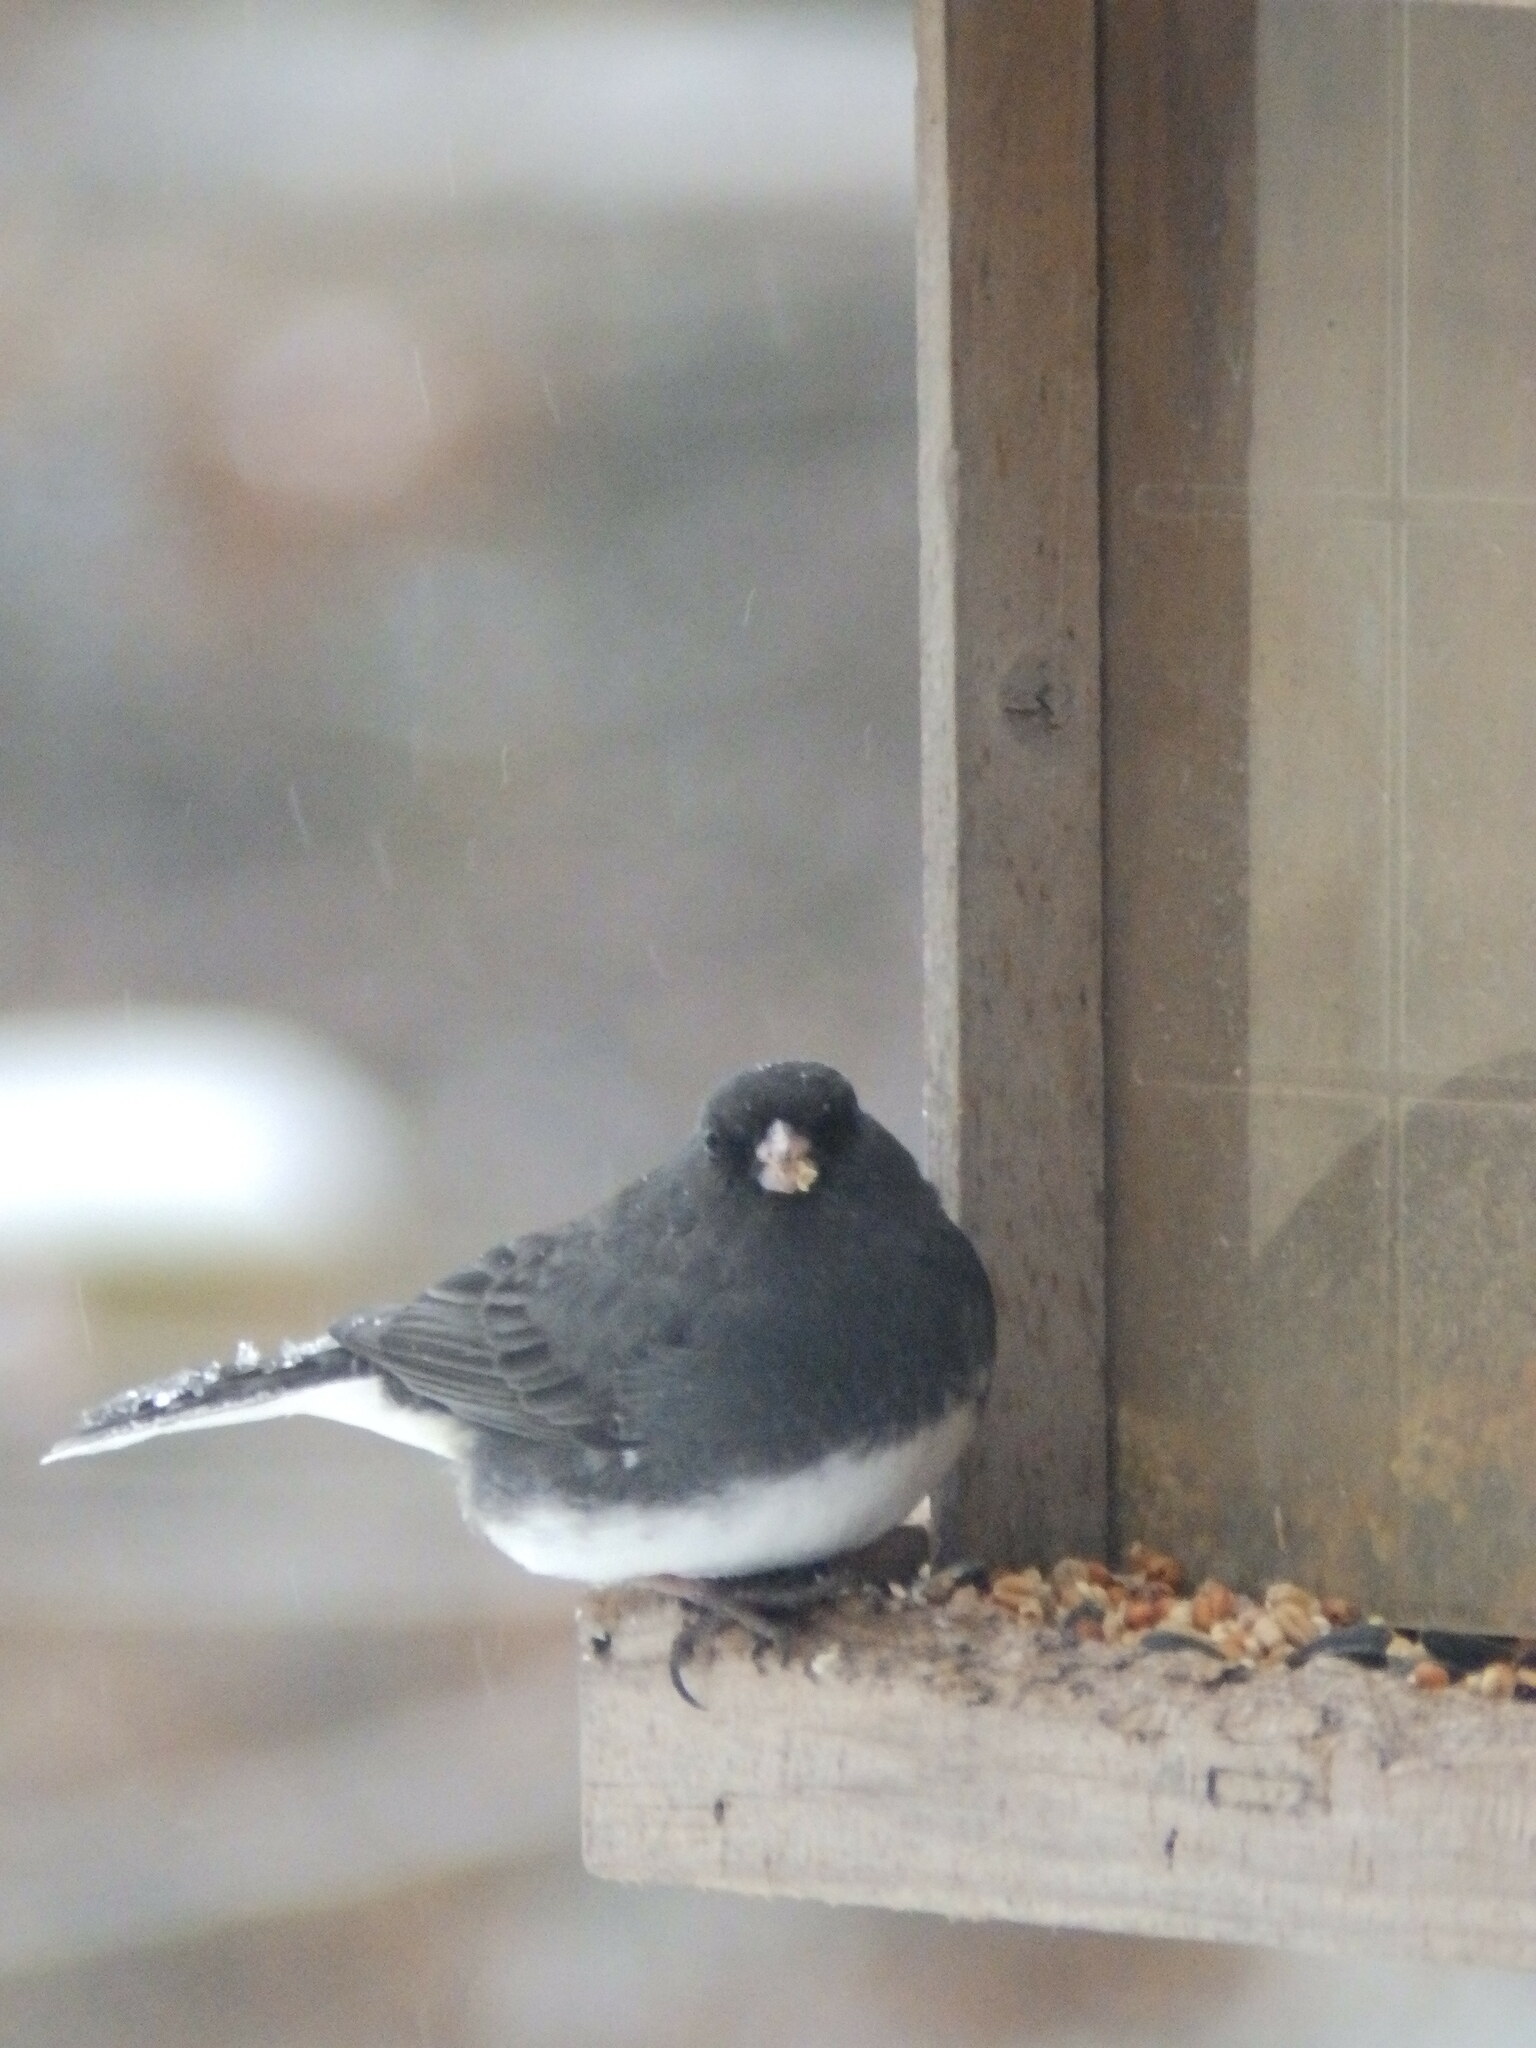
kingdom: Animalia
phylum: Chordata
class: Aves
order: Passeriformes
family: Passerellidae
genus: Junco
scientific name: Junco hyemalis
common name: Dark-eyed junco
